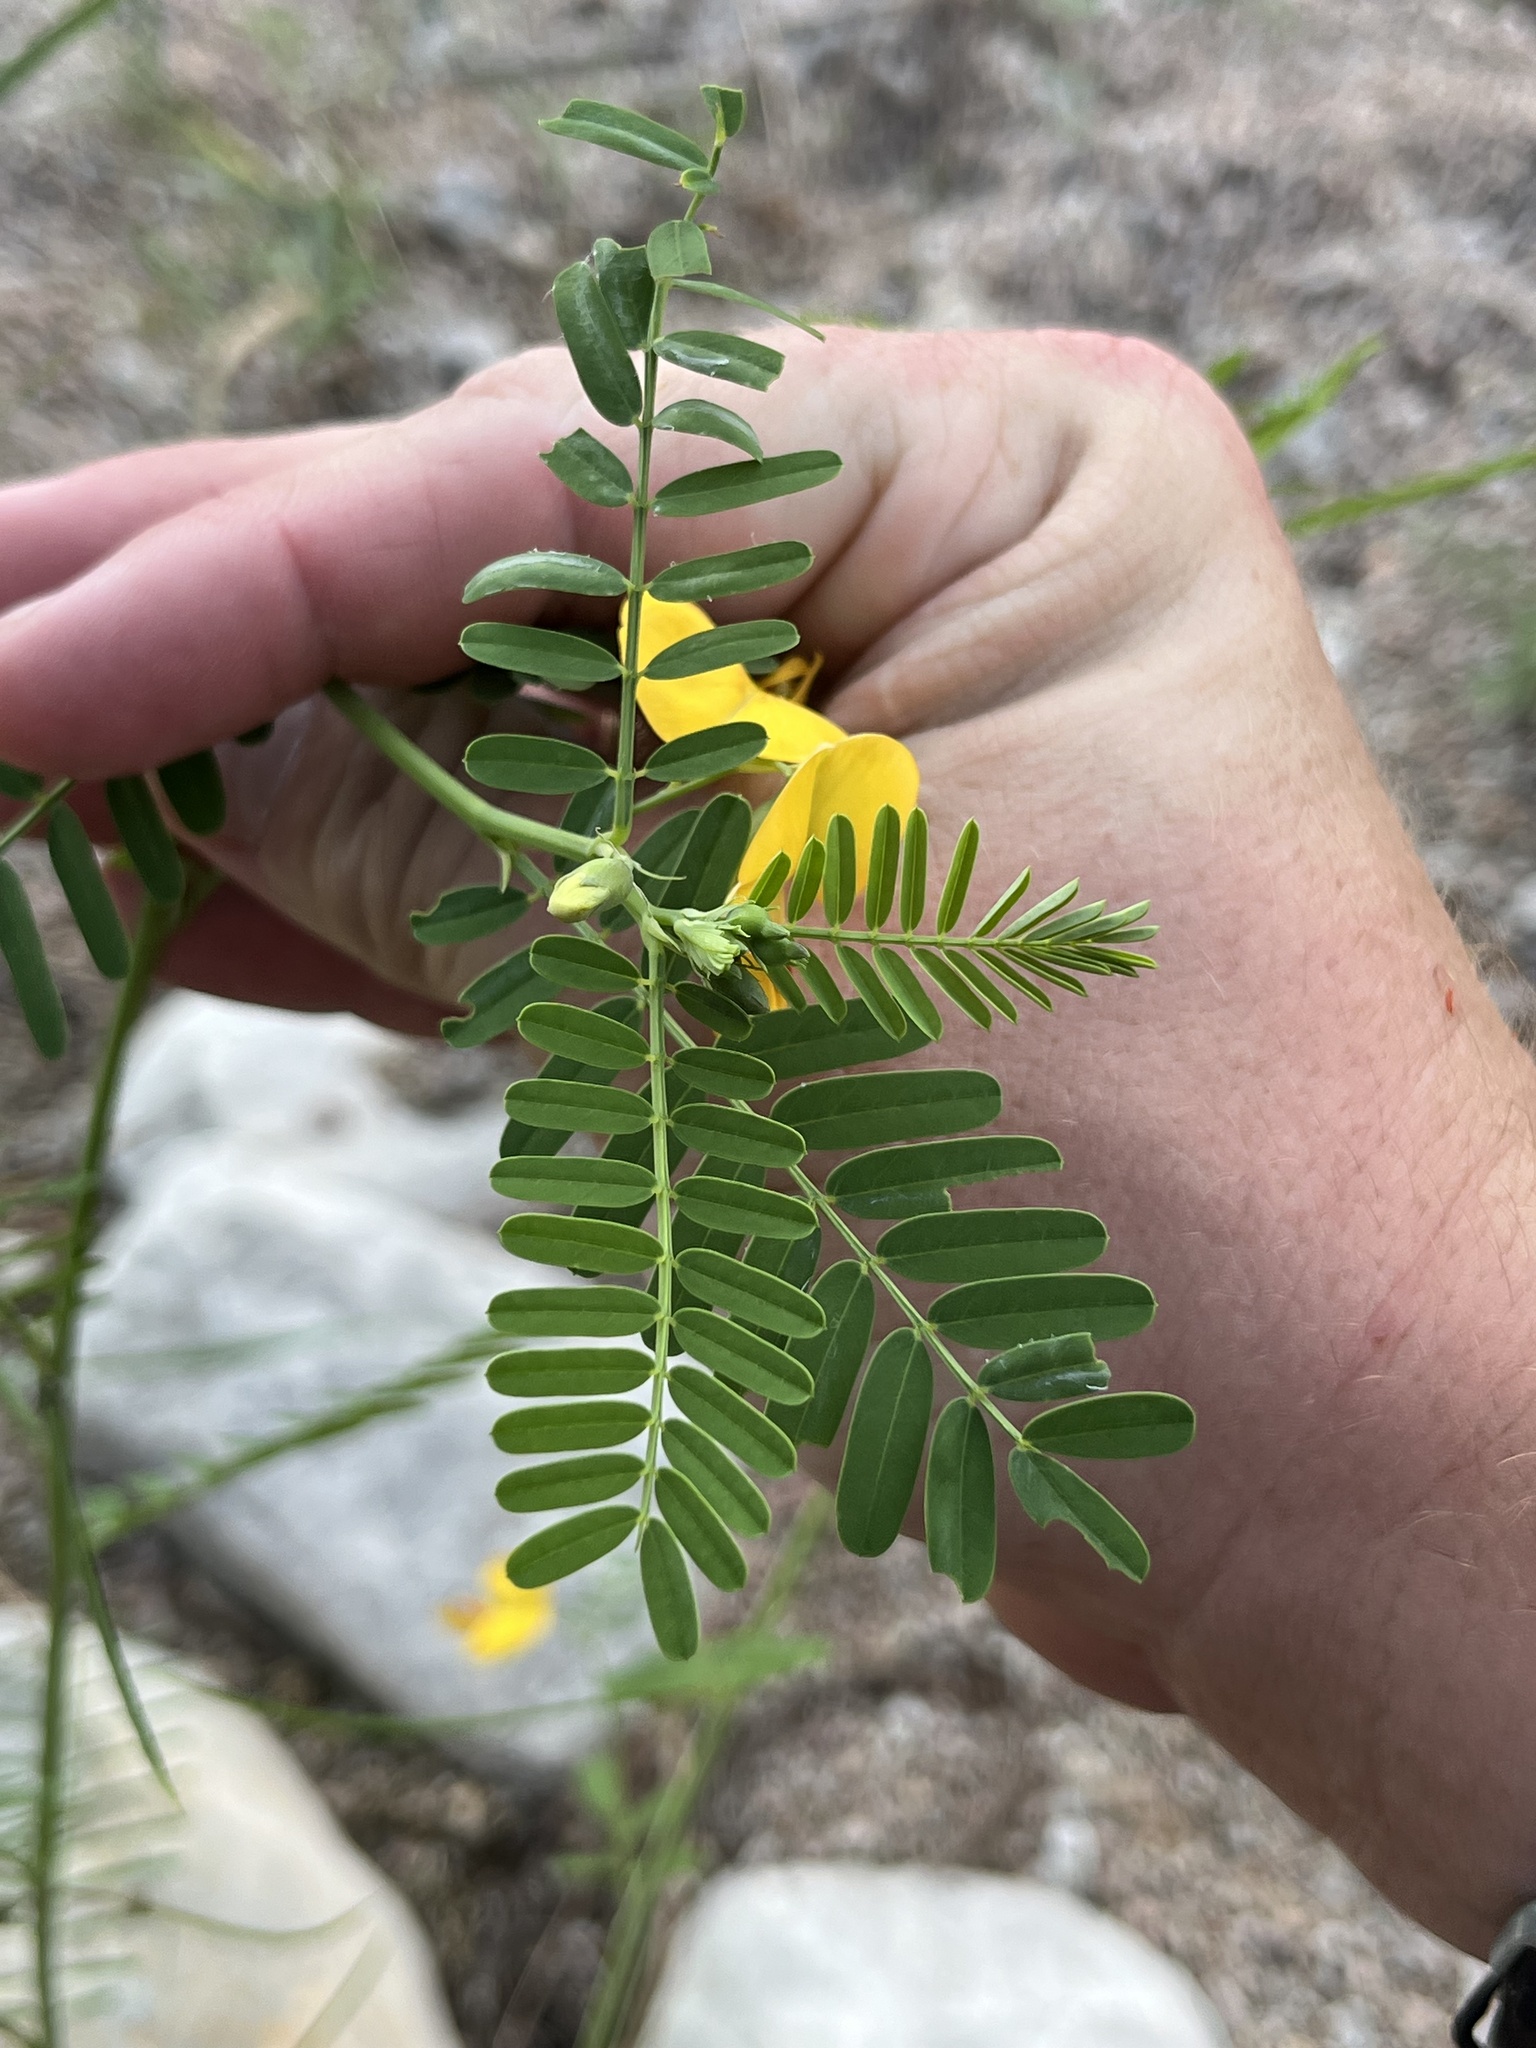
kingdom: Plantae
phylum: Tracheophyta
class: Magnoliopsida
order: Fabales
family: Fabaceae
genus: Sesbania
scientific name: Sesbania herbacea
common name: Bigpod sesbania
